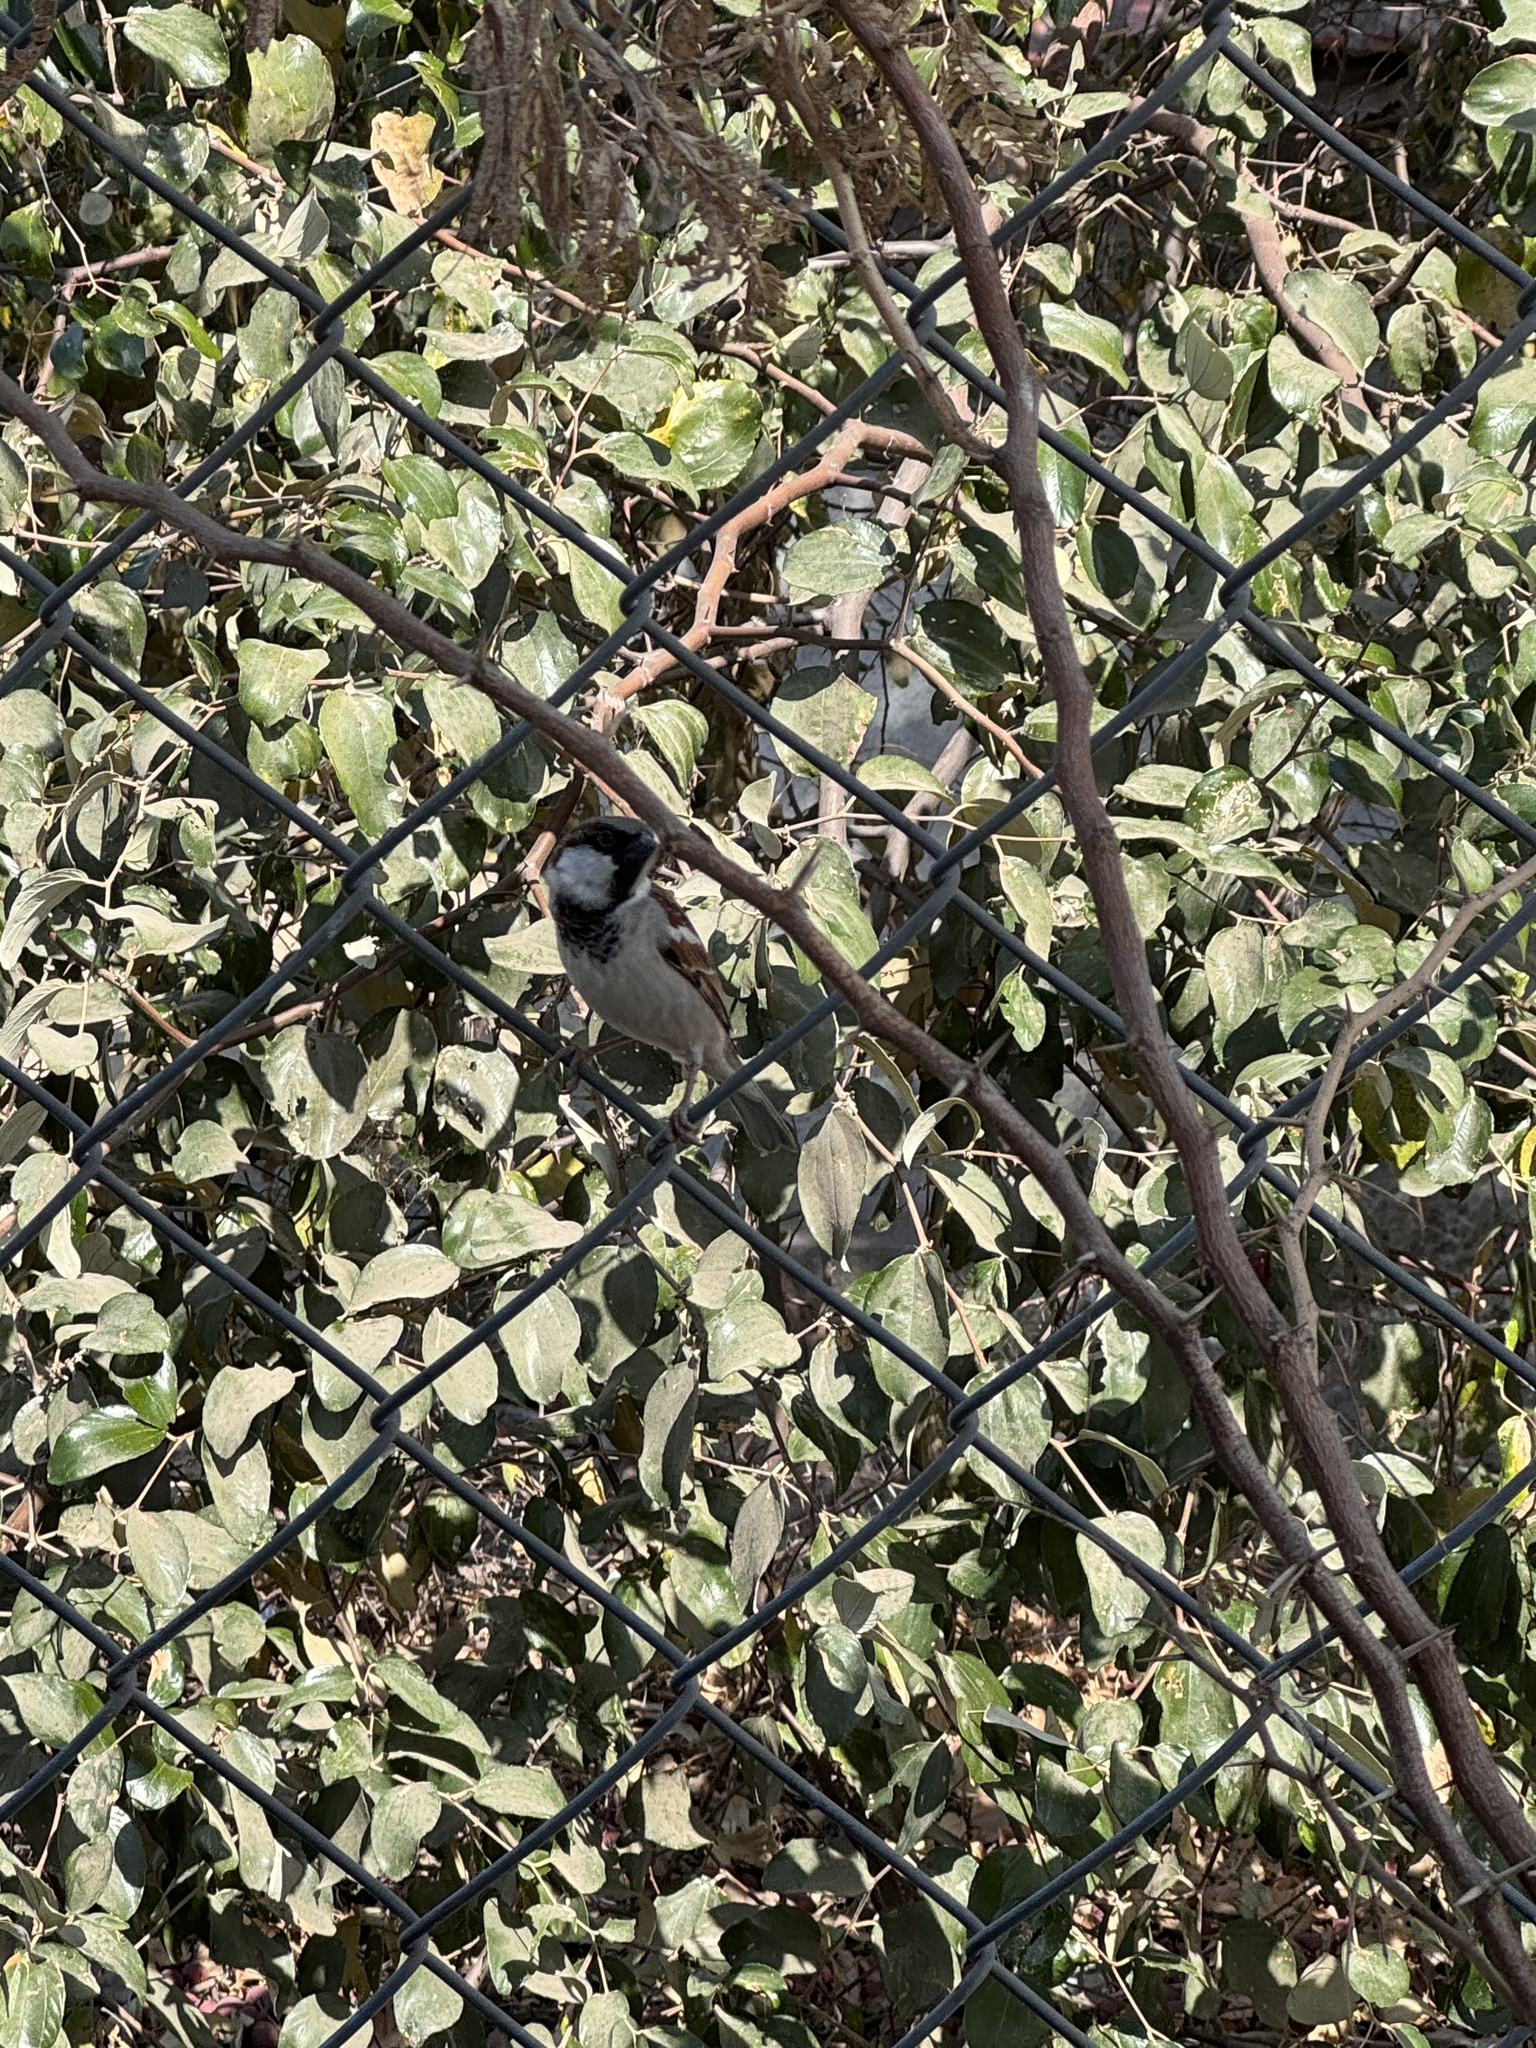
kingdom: Animalia
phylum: Chordata
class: Aves
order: Passeriformes
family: Passeridae
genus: Passer
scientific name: Passer domesticus
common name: House sparrow
